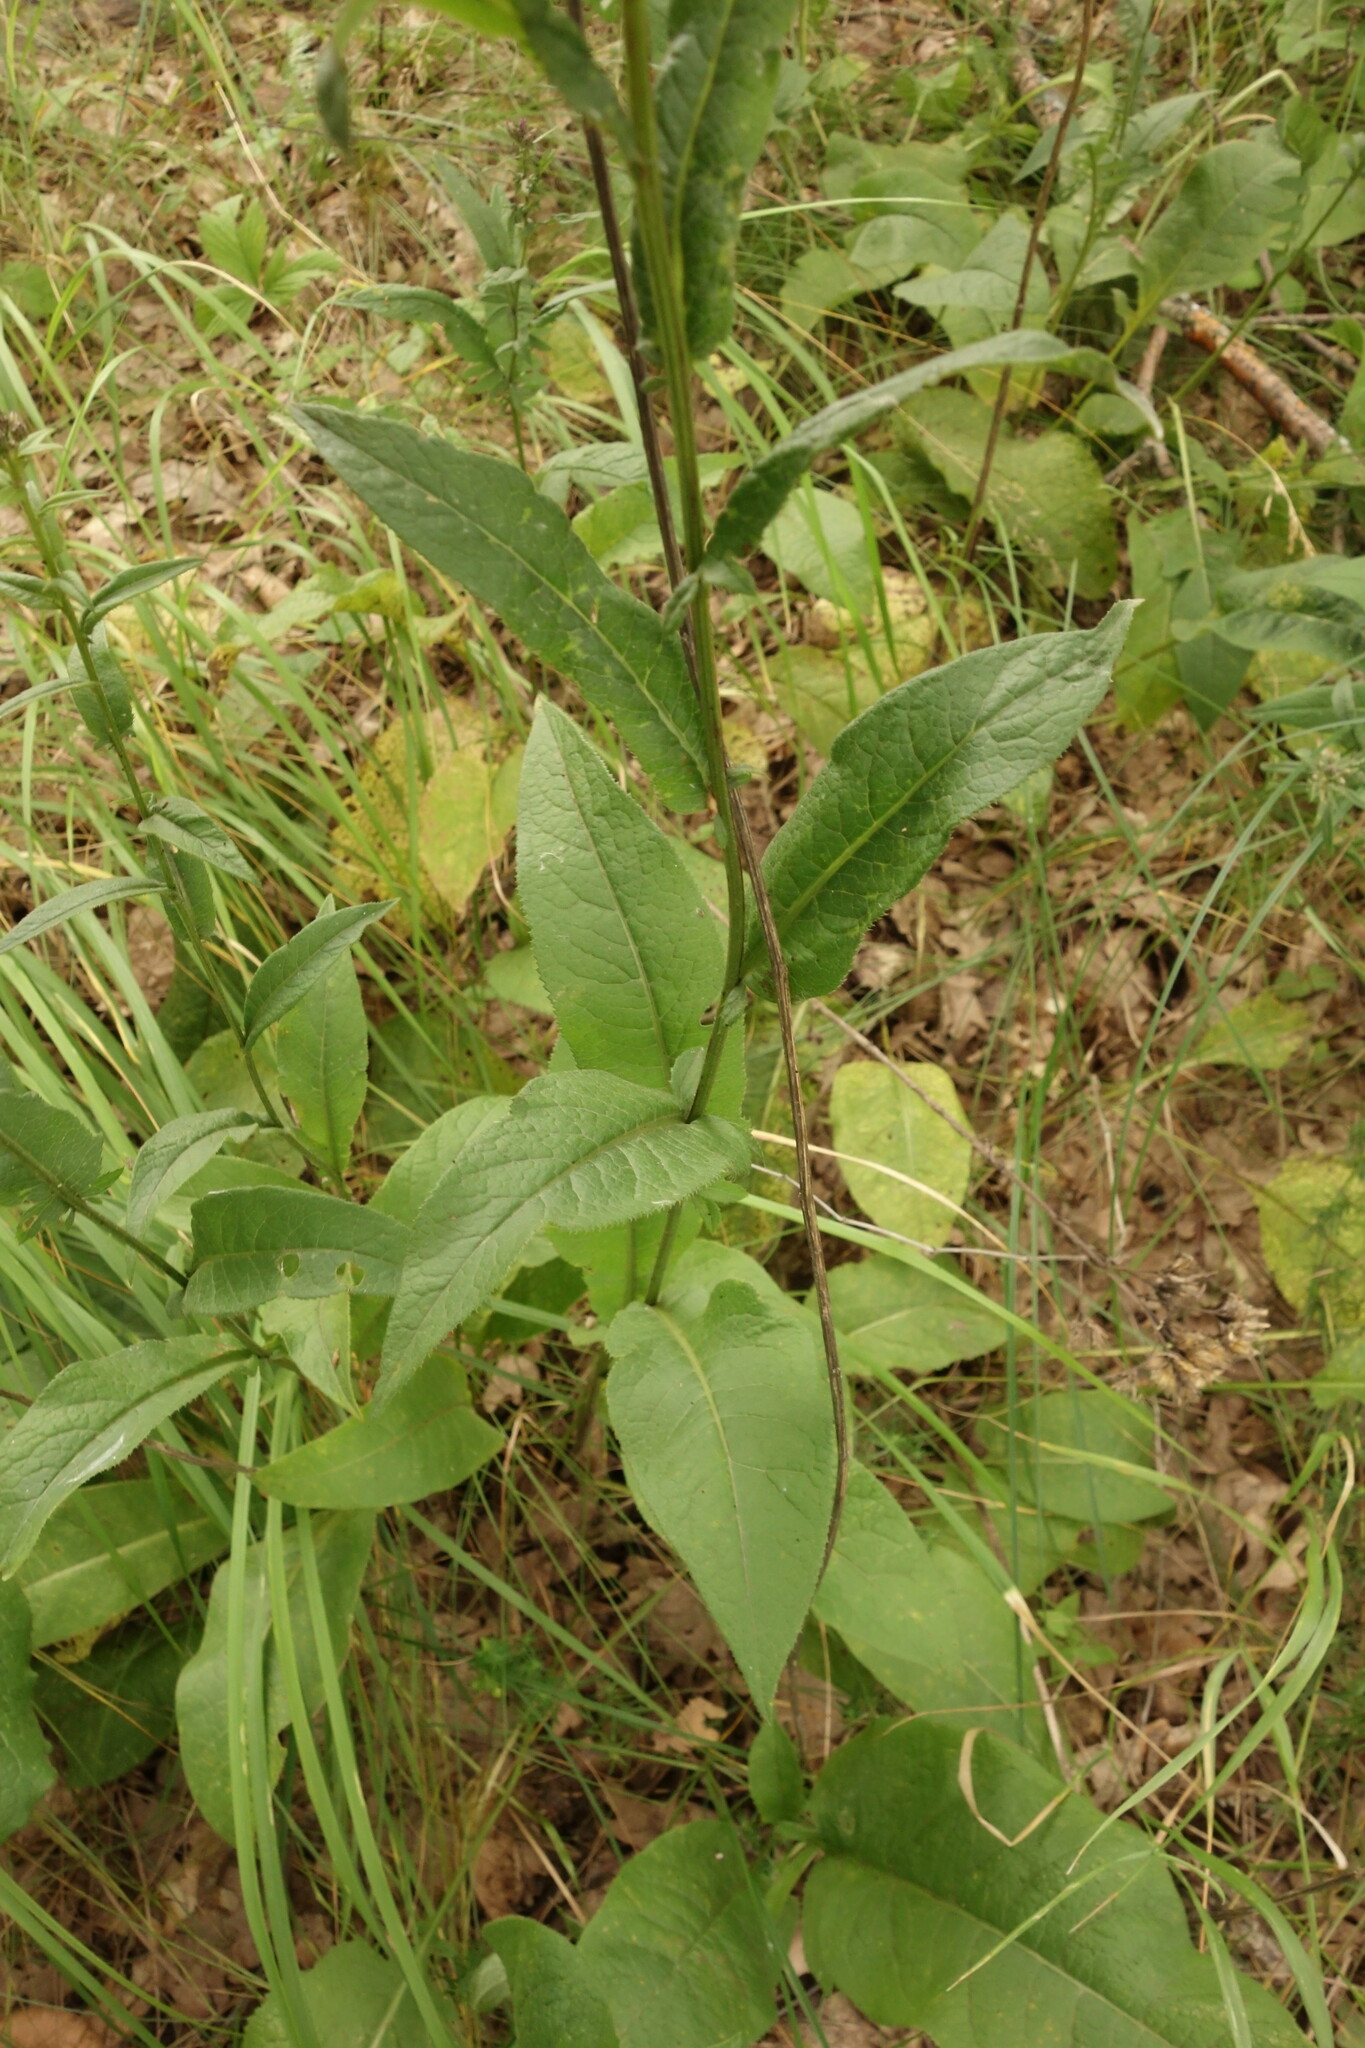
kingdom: Plantae
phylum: Tracheophyta
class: Magnoliopsida
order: Asterales
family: Asteraceae
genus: Serratula
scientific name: Serratula tinctoria
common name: Saw-wort
